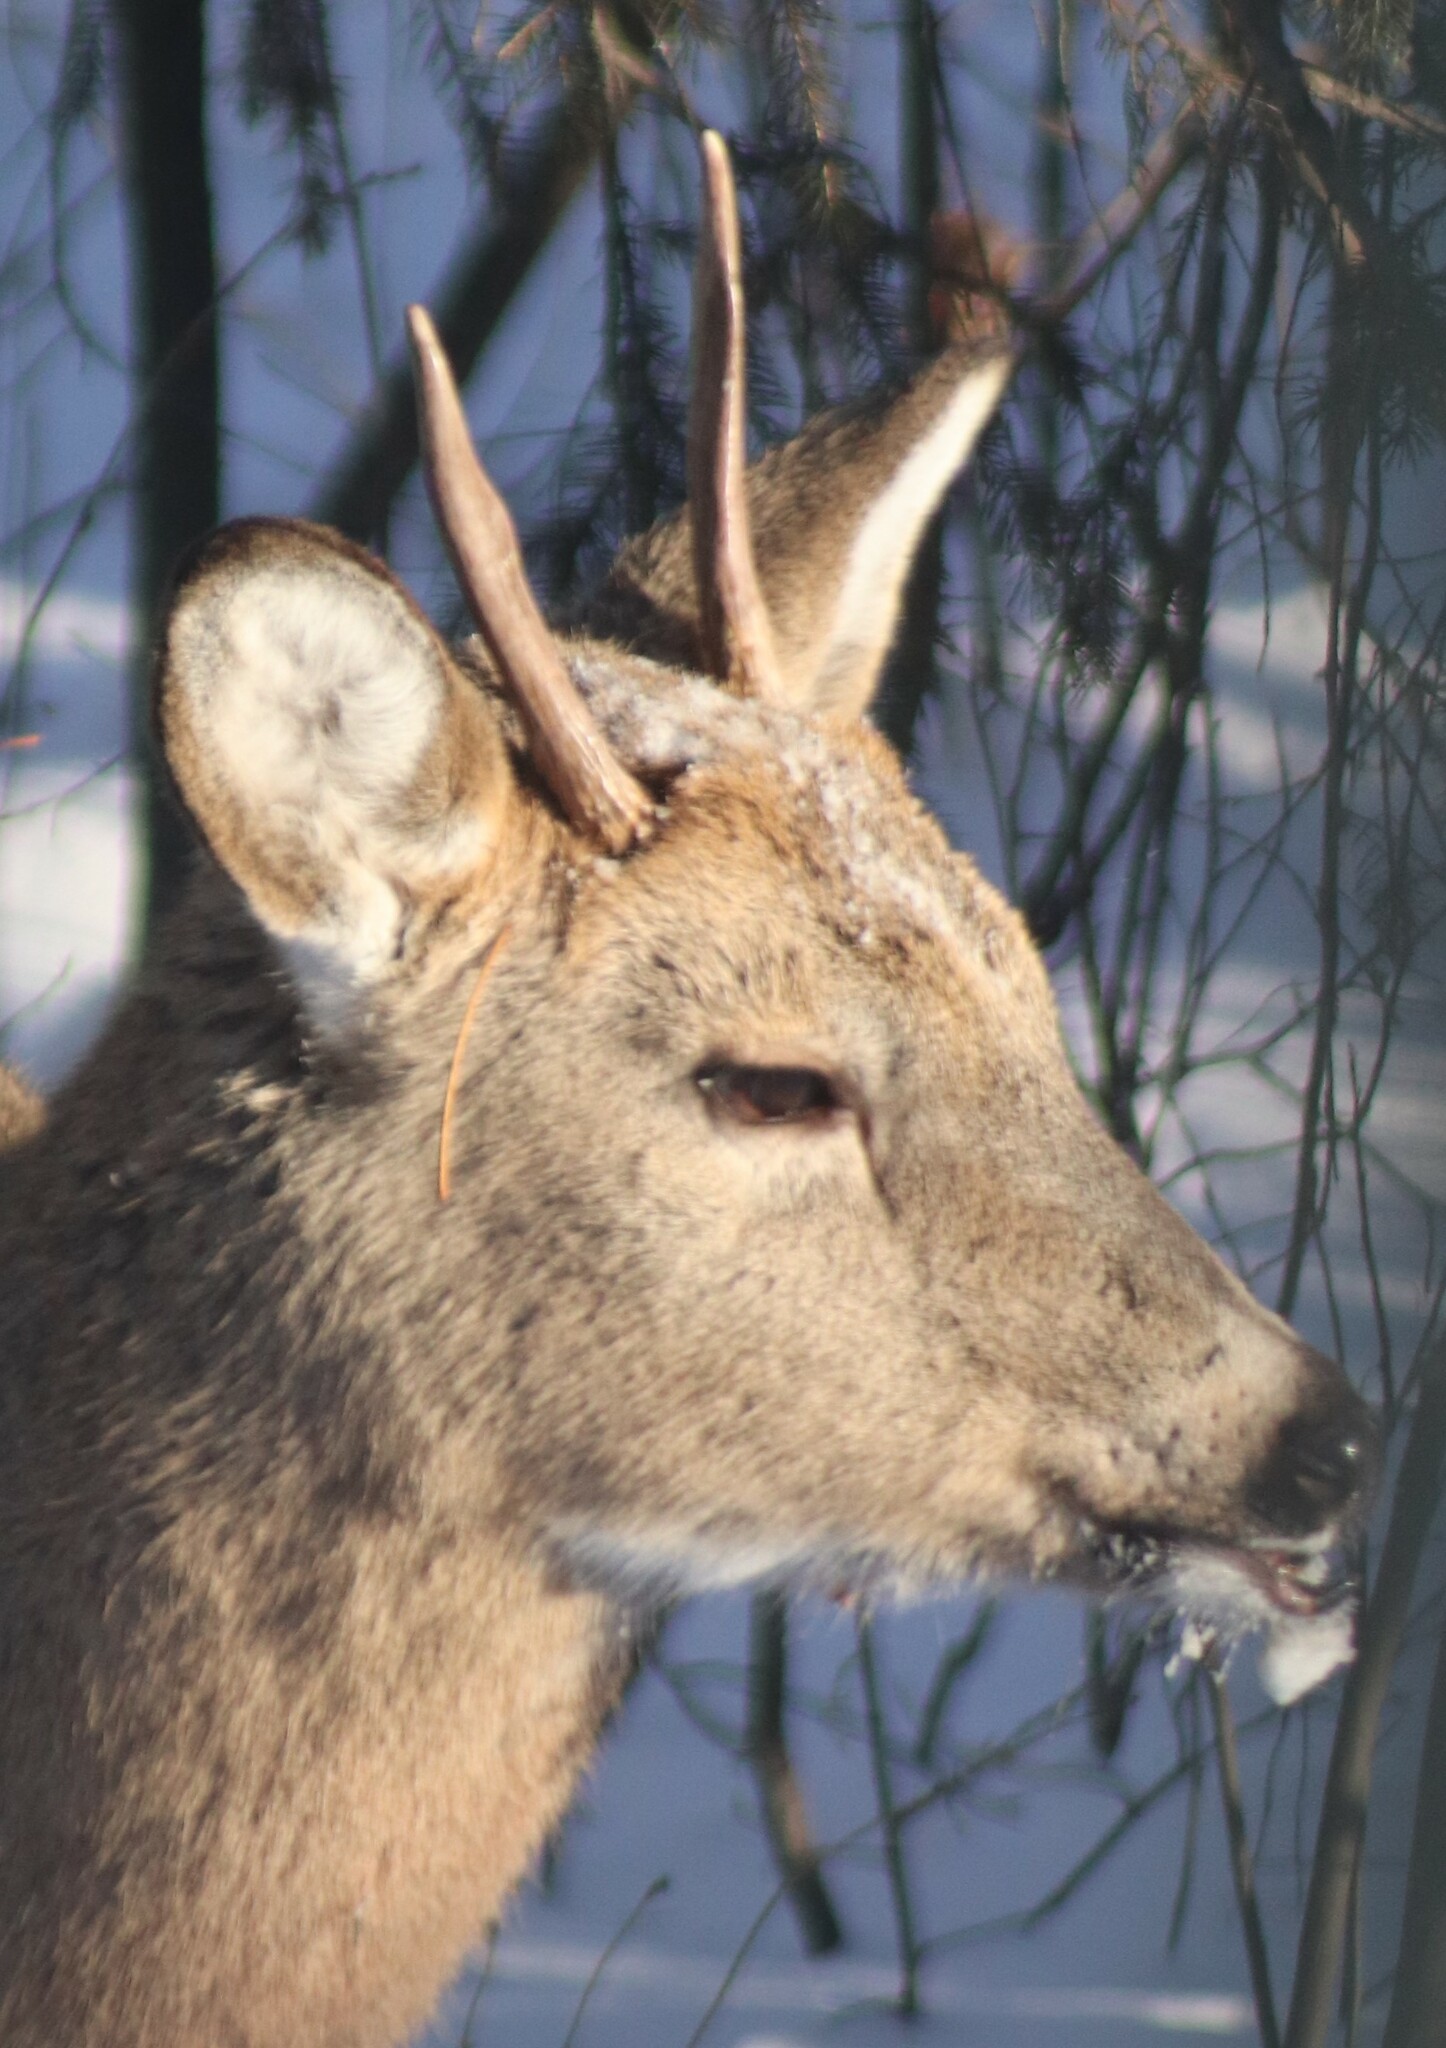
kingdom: Animalia
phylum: Chordata
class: Mammalia
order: Artiodactyla
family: Cervidae
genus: Odocoileus
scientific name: Odocoileus virginianus
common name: White-tailed deer
